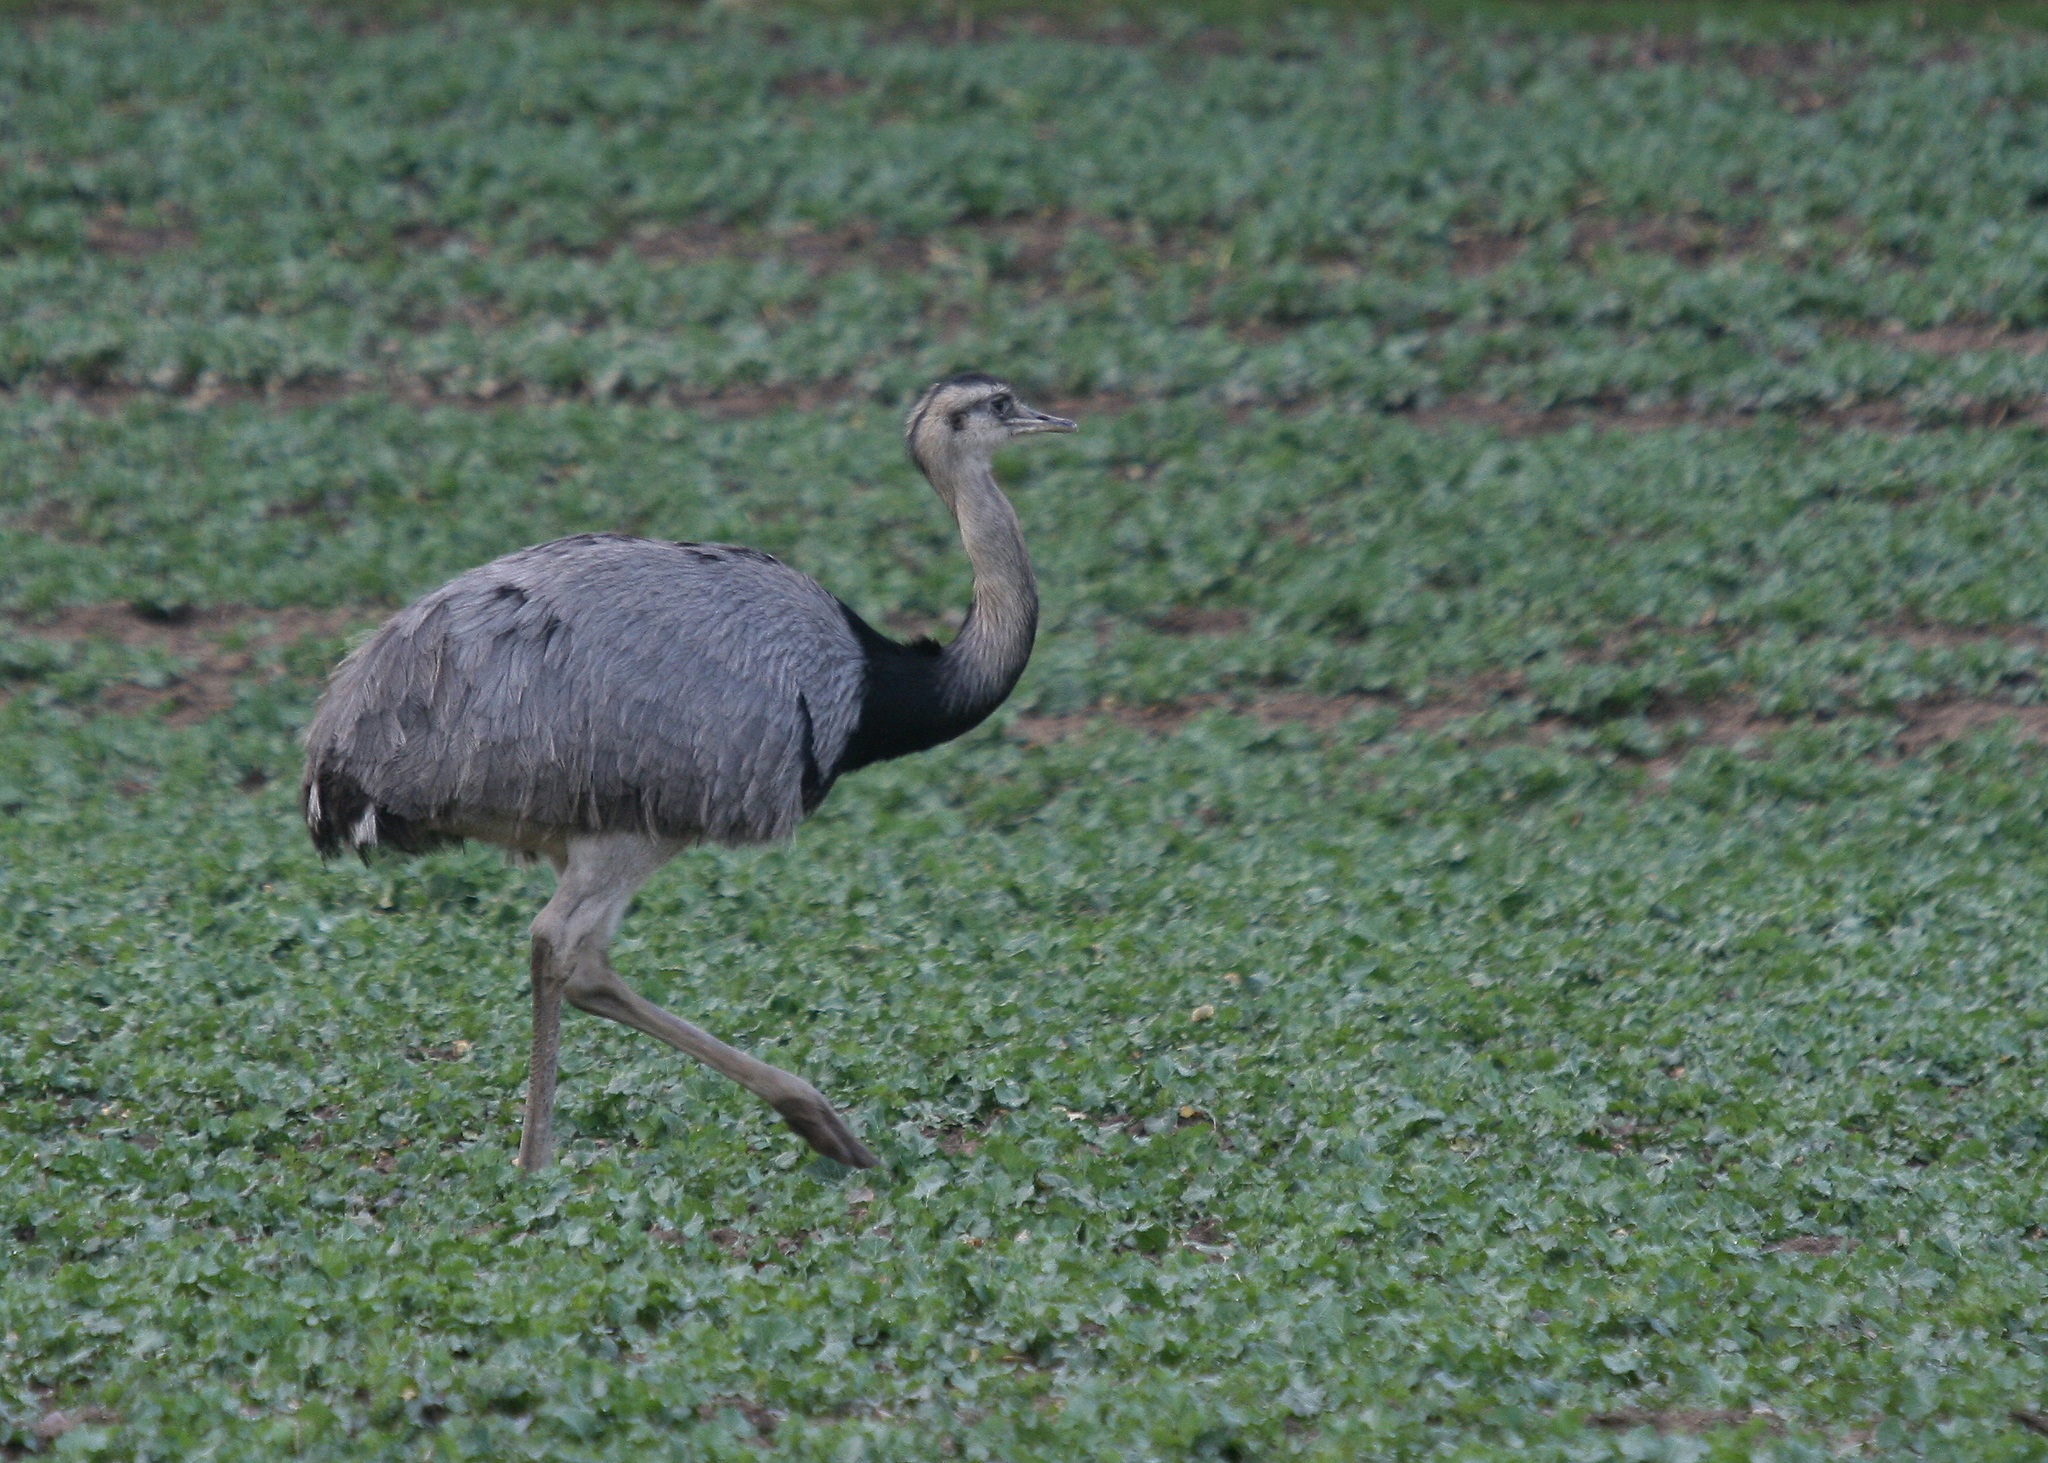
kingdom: Animalia
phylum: Chordata
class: Aves
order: Rheiformes
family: Rheidae
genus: Rhea
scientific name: Rhea americana
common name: Greater rhea
